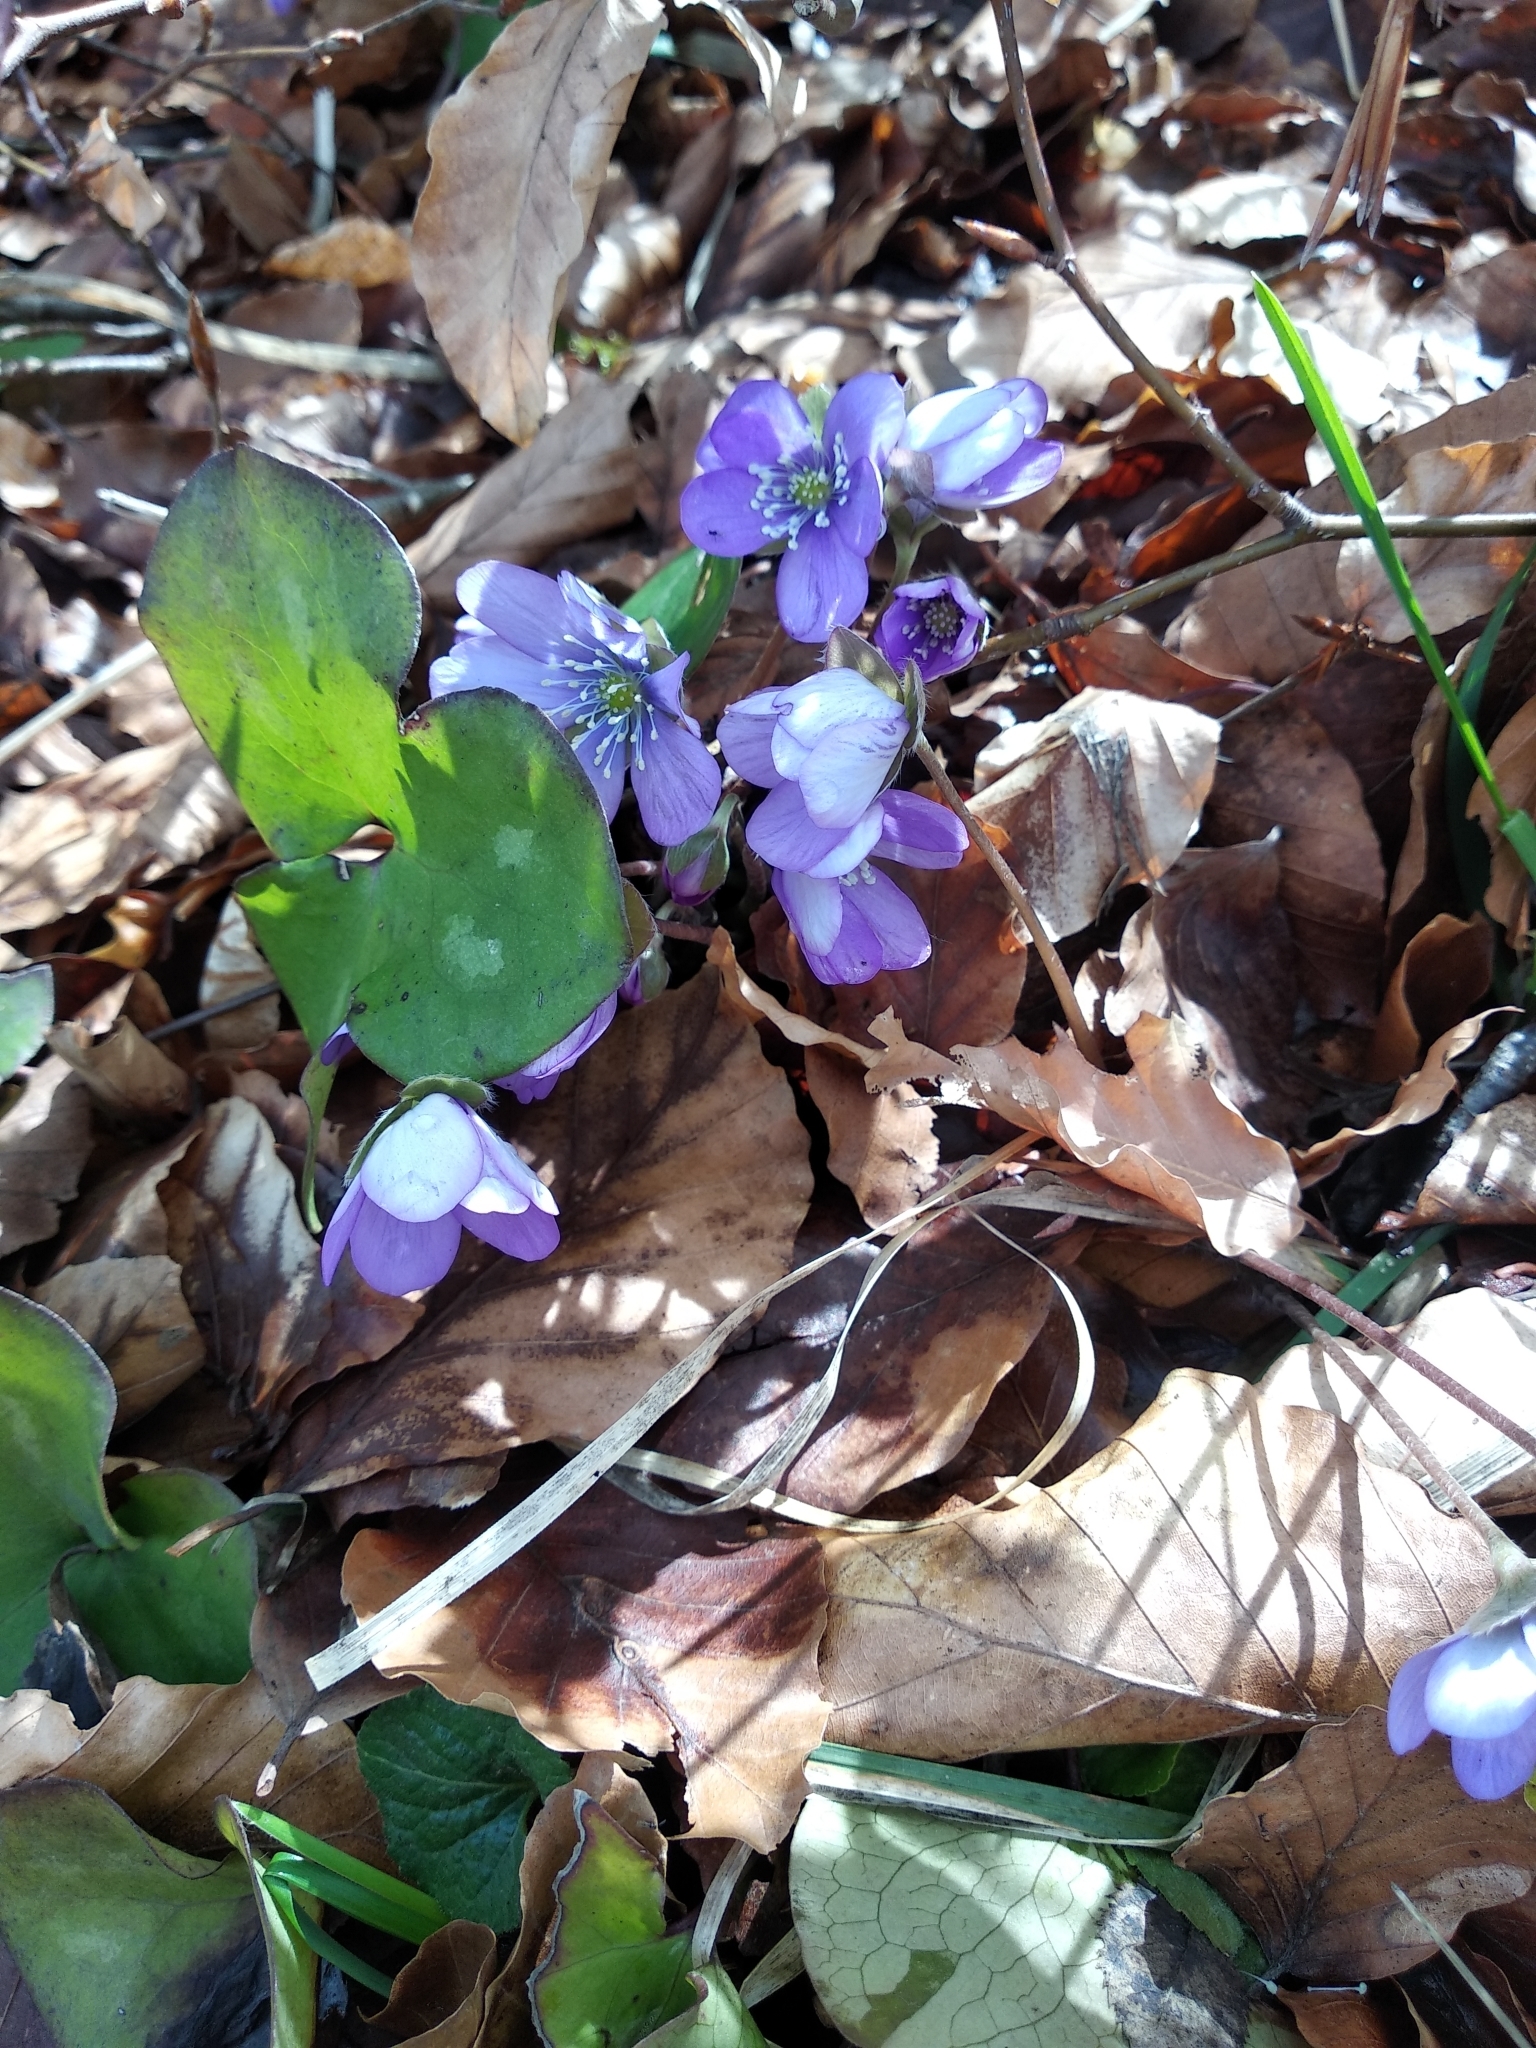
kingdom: Plantae
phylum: Tracheophyta
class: Magnoliopsida
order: Ranunculales
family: Ranunculaceae
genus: Hepatica
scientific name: Hepatica nobilis
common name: Liverleaf
